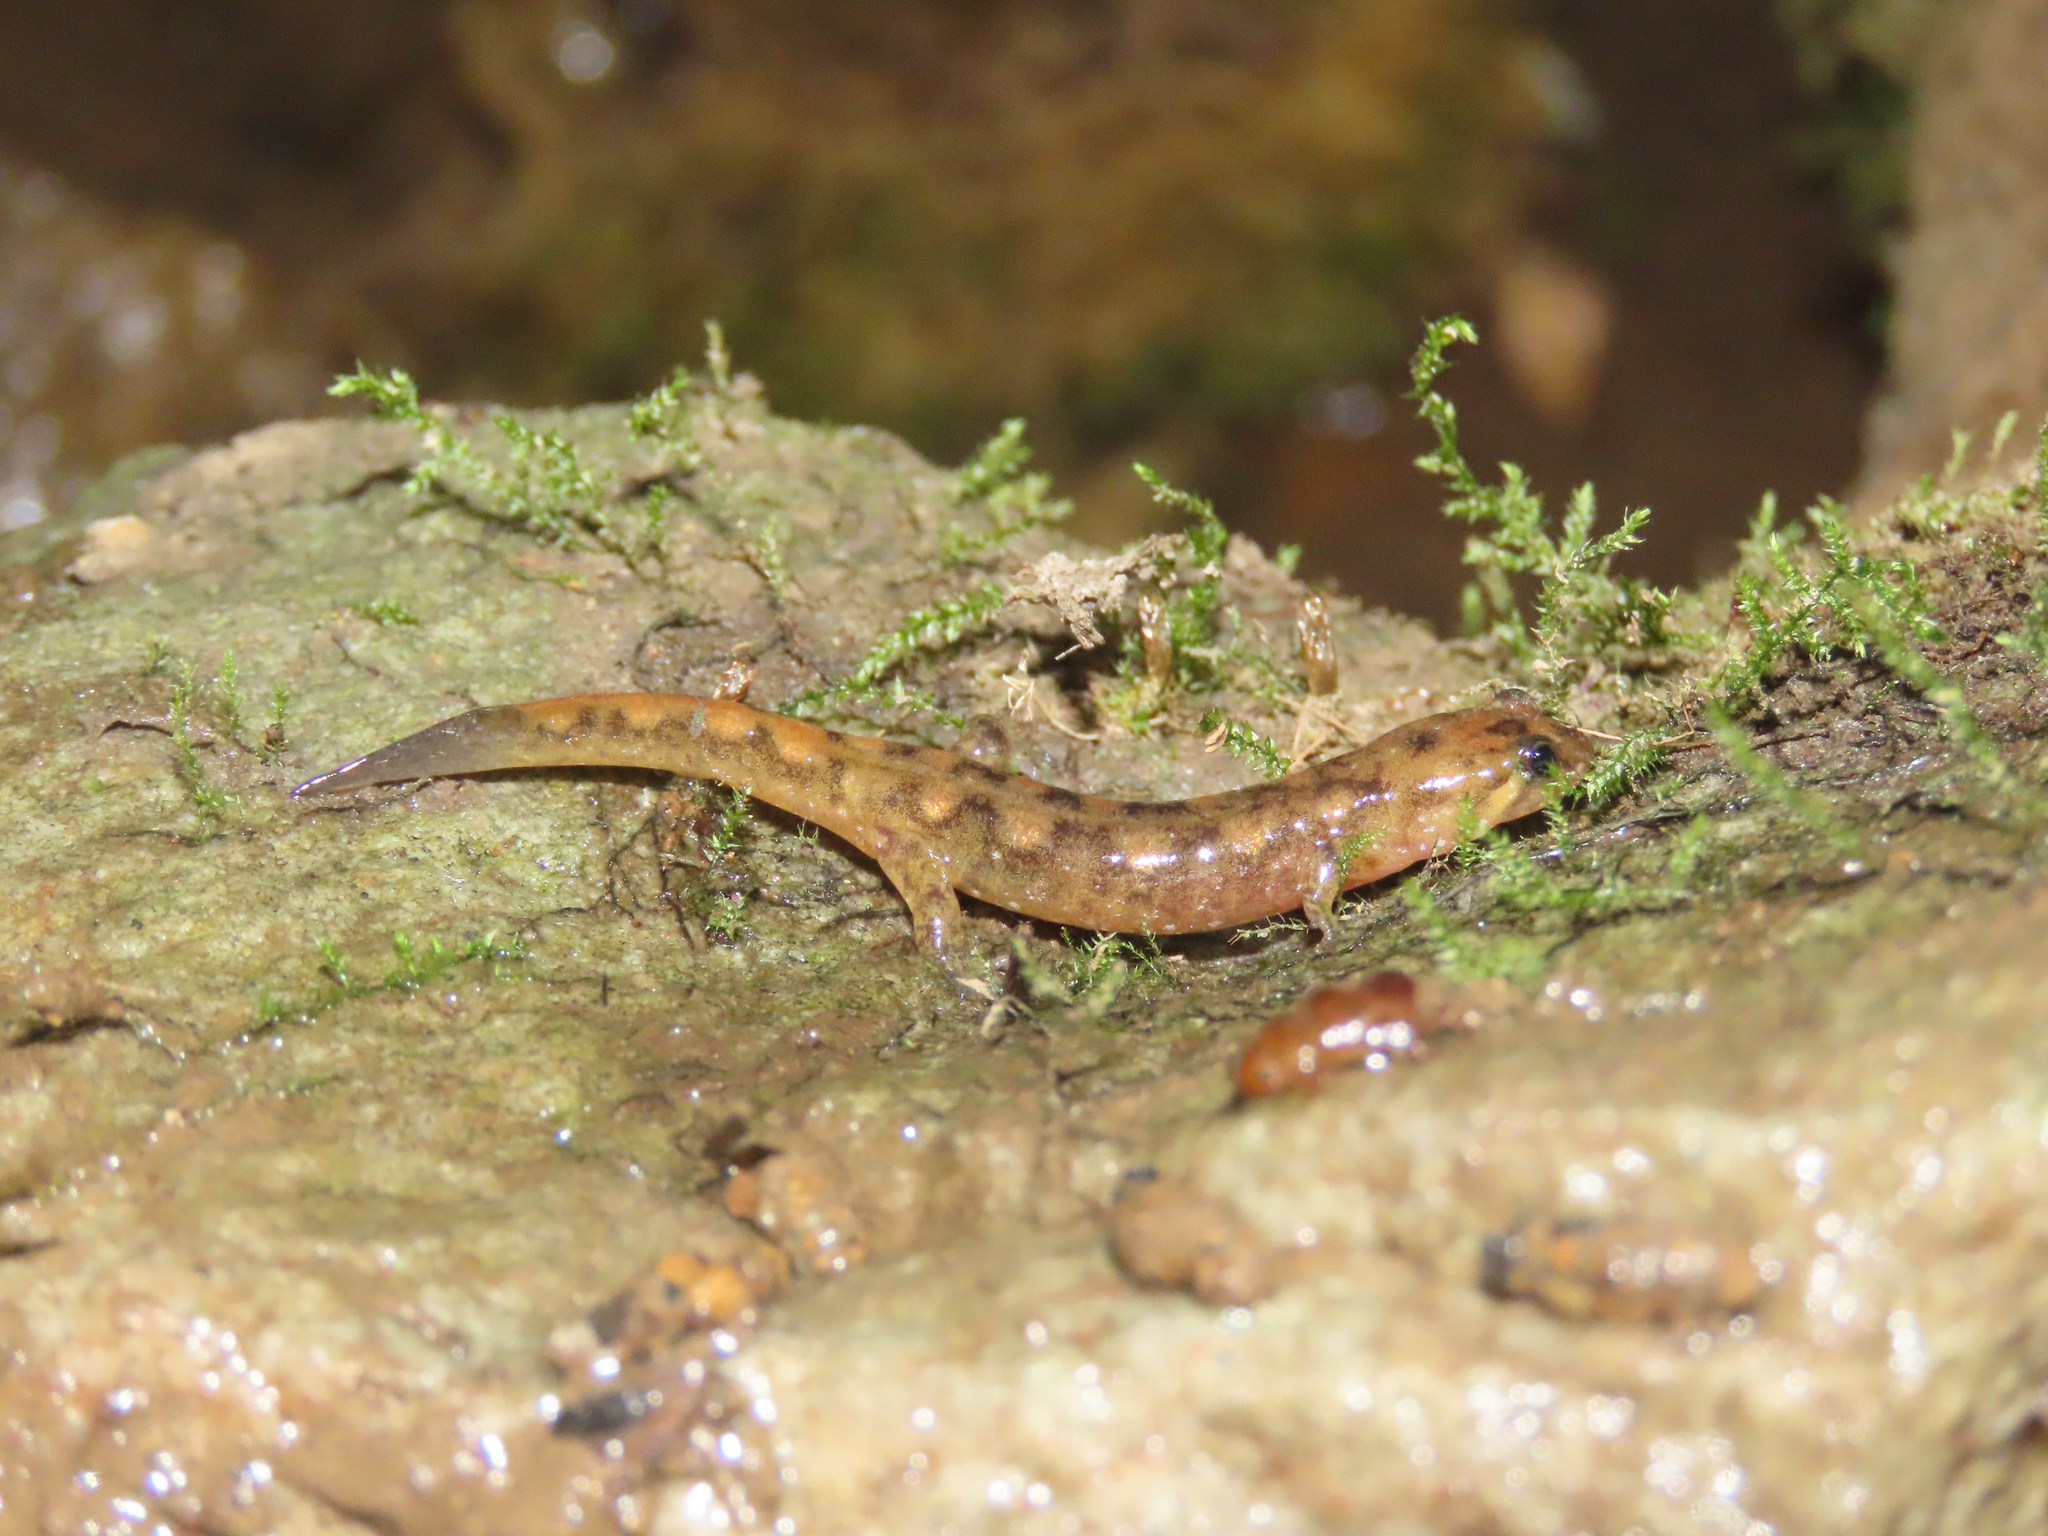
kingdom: Animalia
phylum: Chordata
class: Amphibia
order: Caudata
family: Plethodontidae
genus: Desmognathus
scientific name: Desmognathus monticola
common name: Seal salamander
